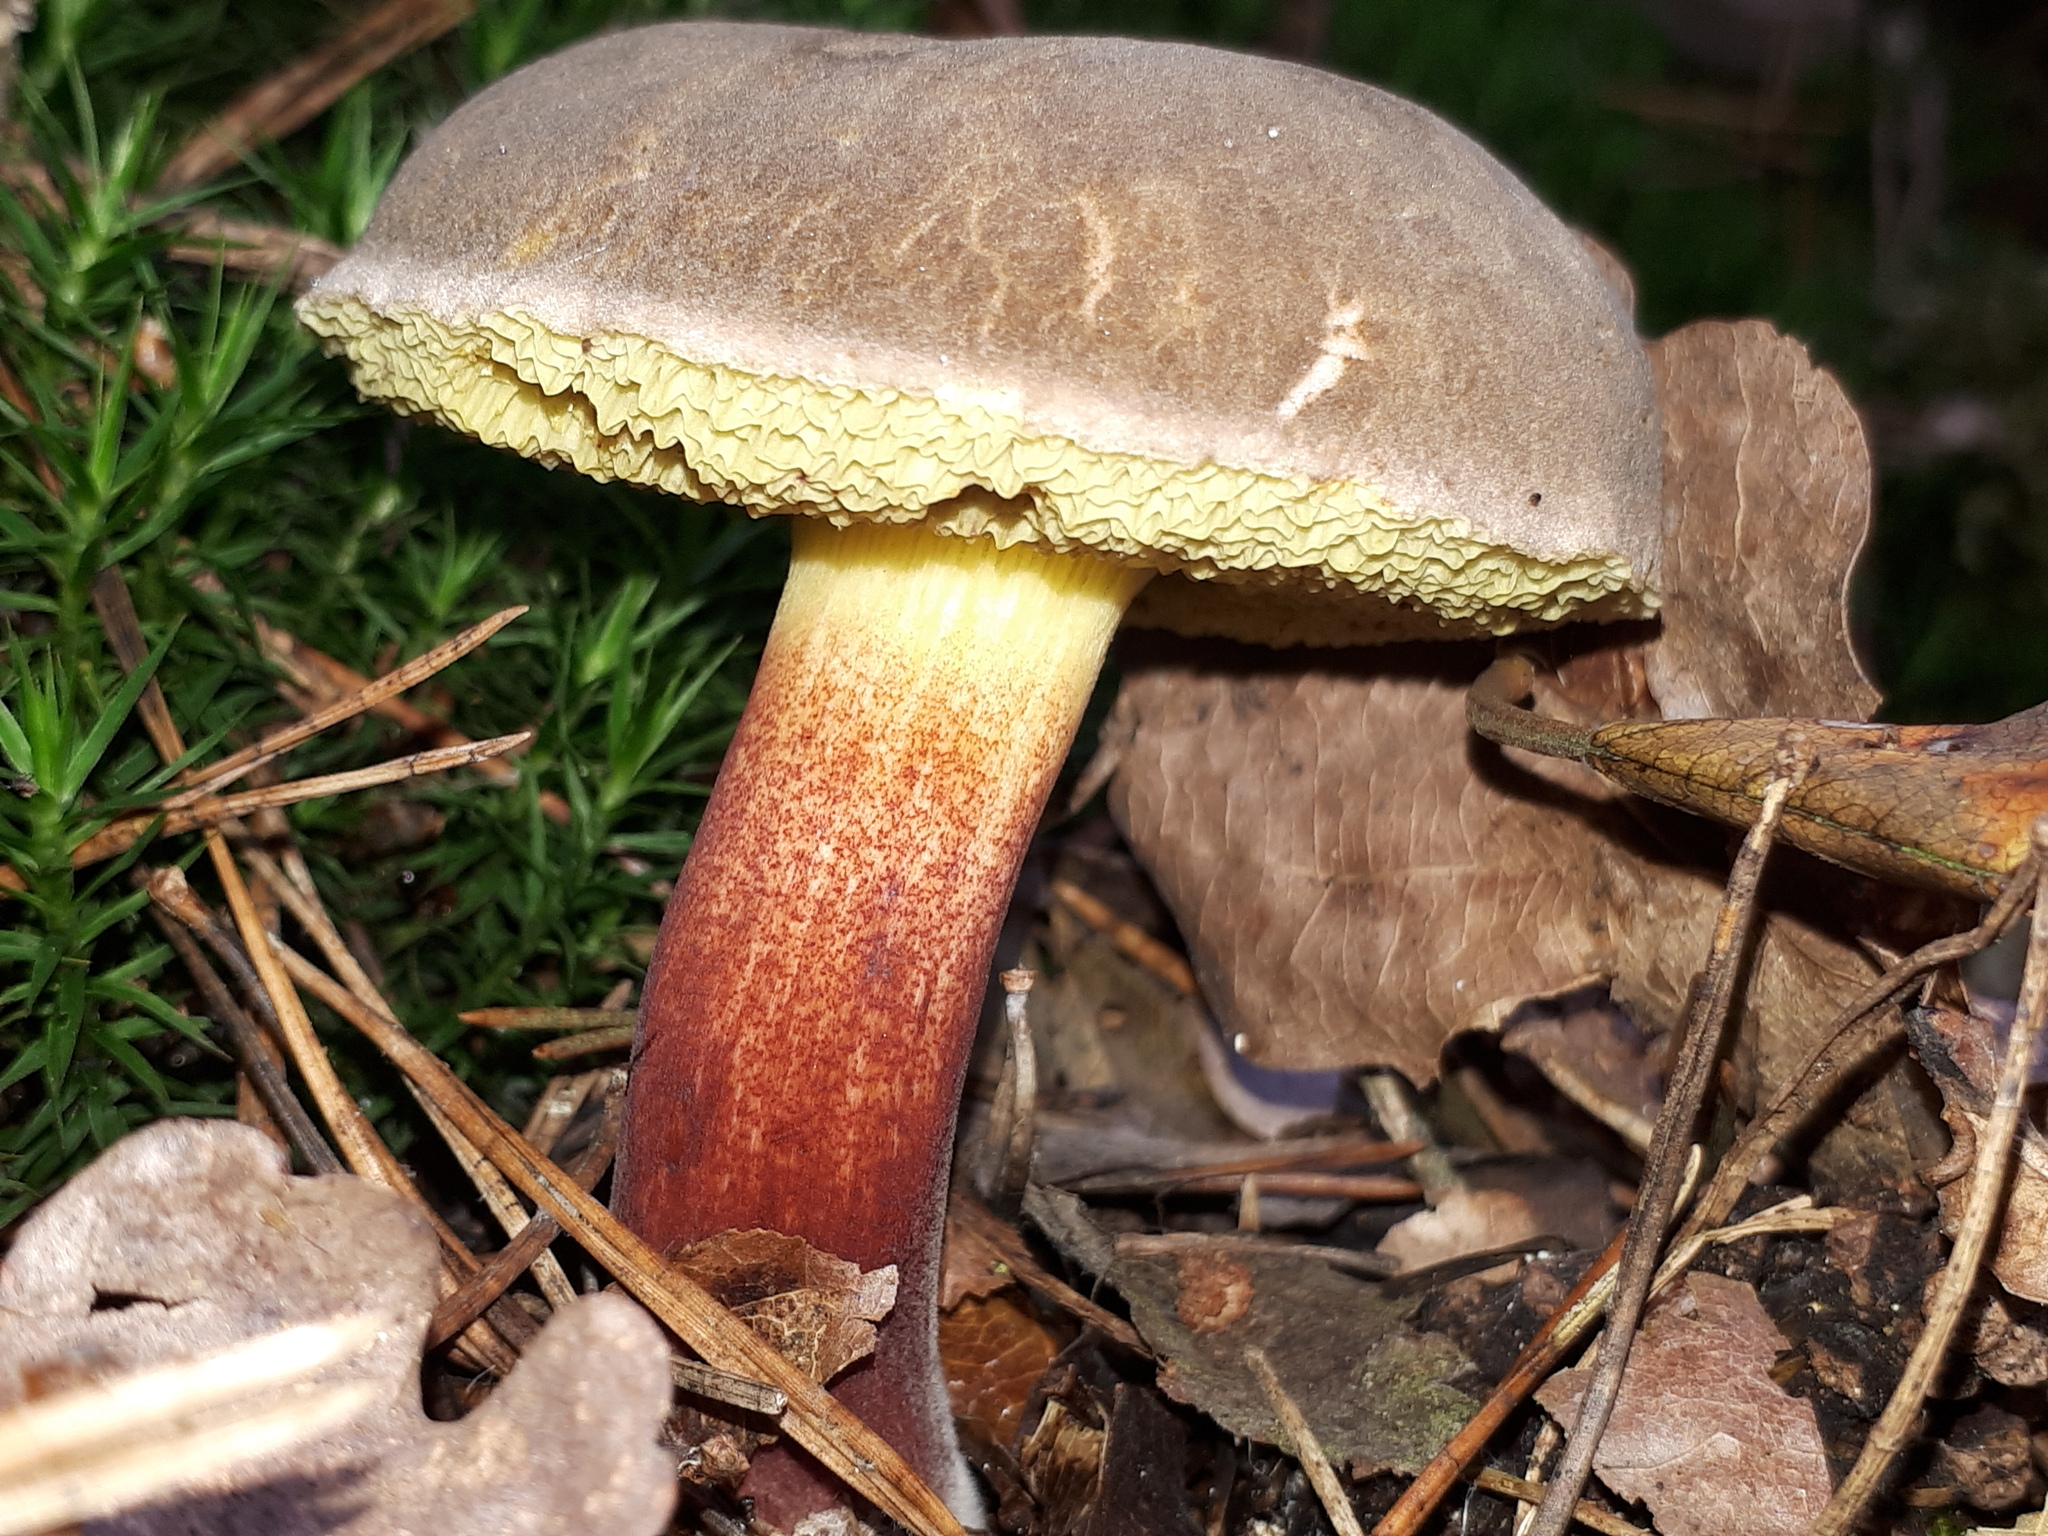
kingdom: Fungi
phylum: Basidiomycota
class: Agaricomycetes
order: Boletales
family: Boletaceae
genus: Xerocomellus
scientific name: Xerocomellus chrysenteron
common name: Red-cracking bolete
